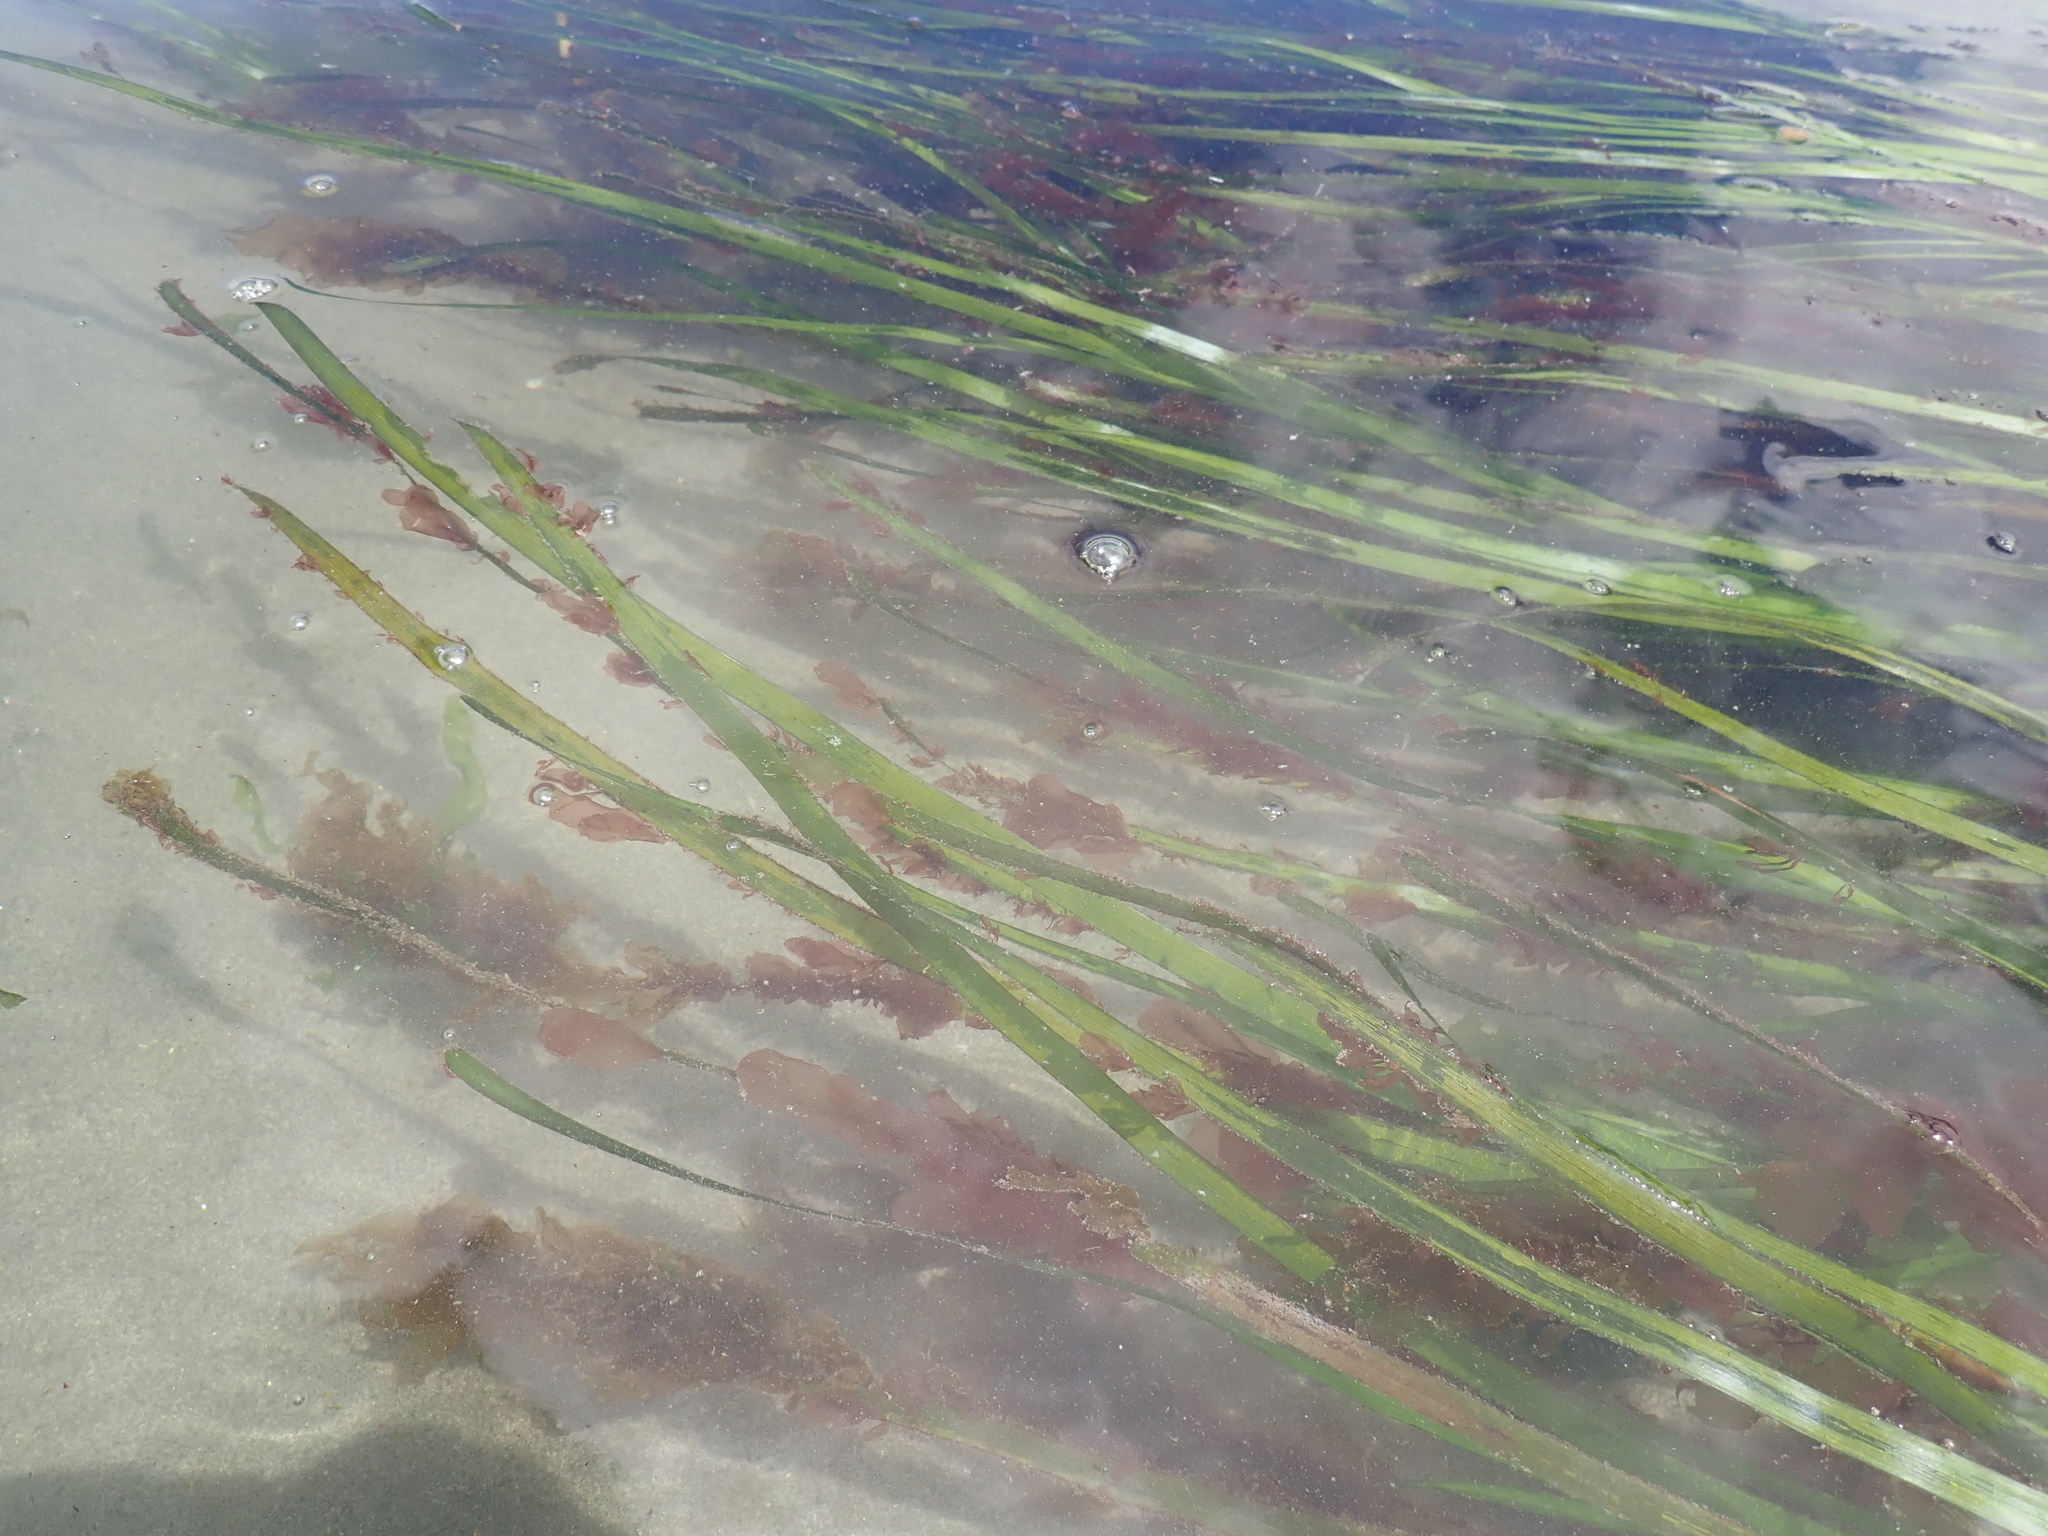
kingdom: Plantae
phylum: Tracheophyta
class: Liliopsida
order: Alismatales
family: Zosteraceae
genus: Zostera
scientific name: Zostera marina
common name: Eelgrass
